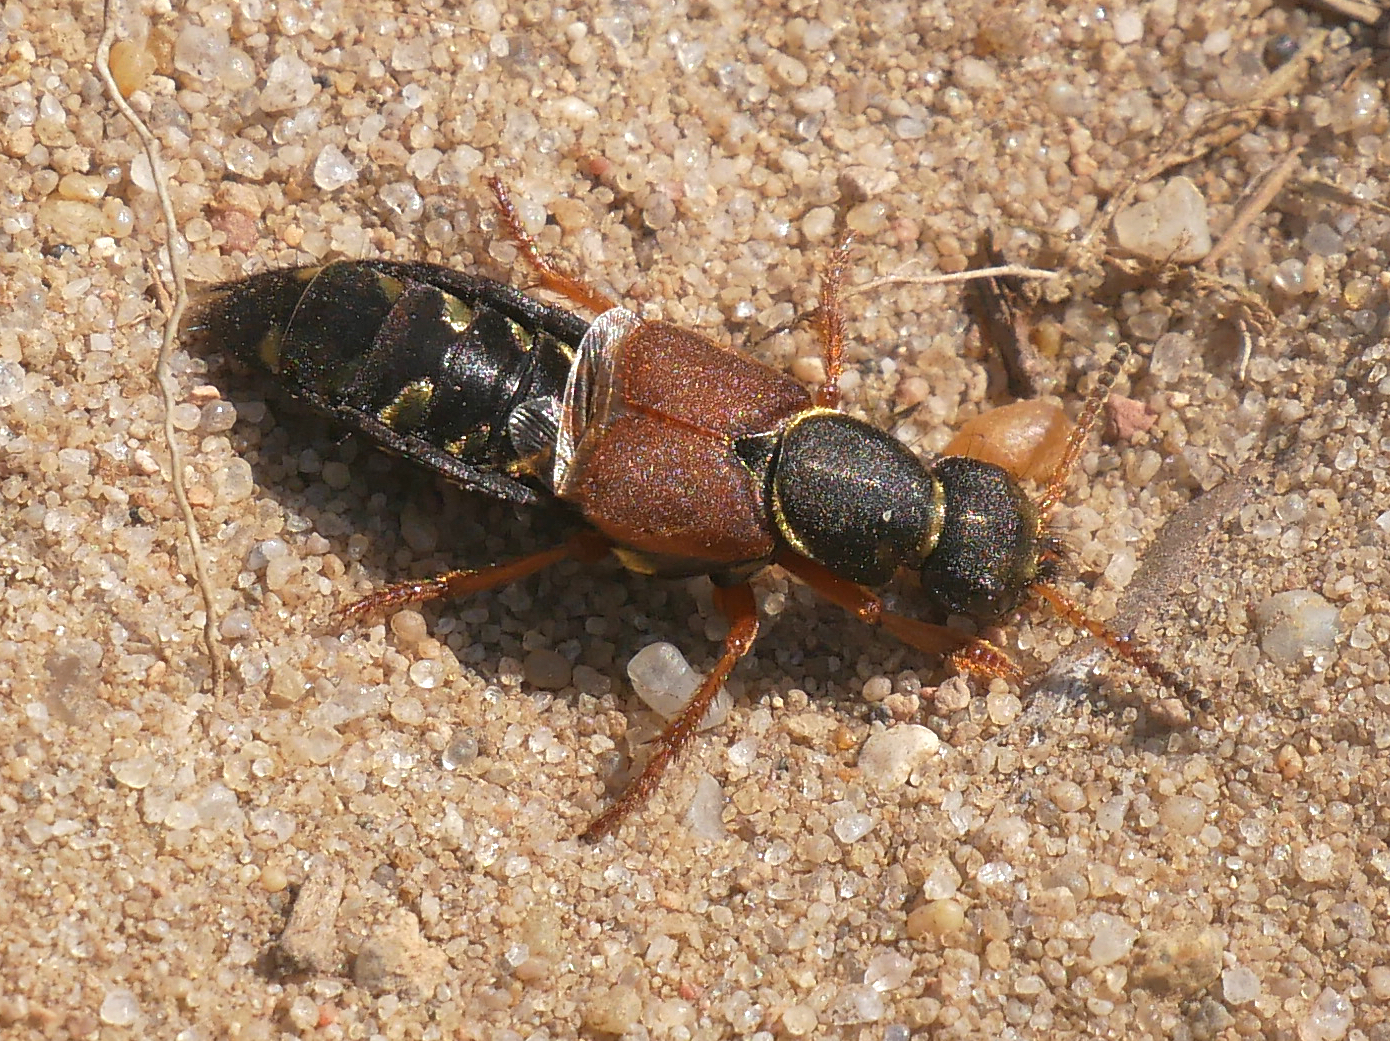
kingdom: Animalia
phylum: Arthropoda
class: Insecta
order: Coleoptera
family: Staphylinidae
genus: Staphylinus
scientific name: Staphylinus dimidiaticornis
